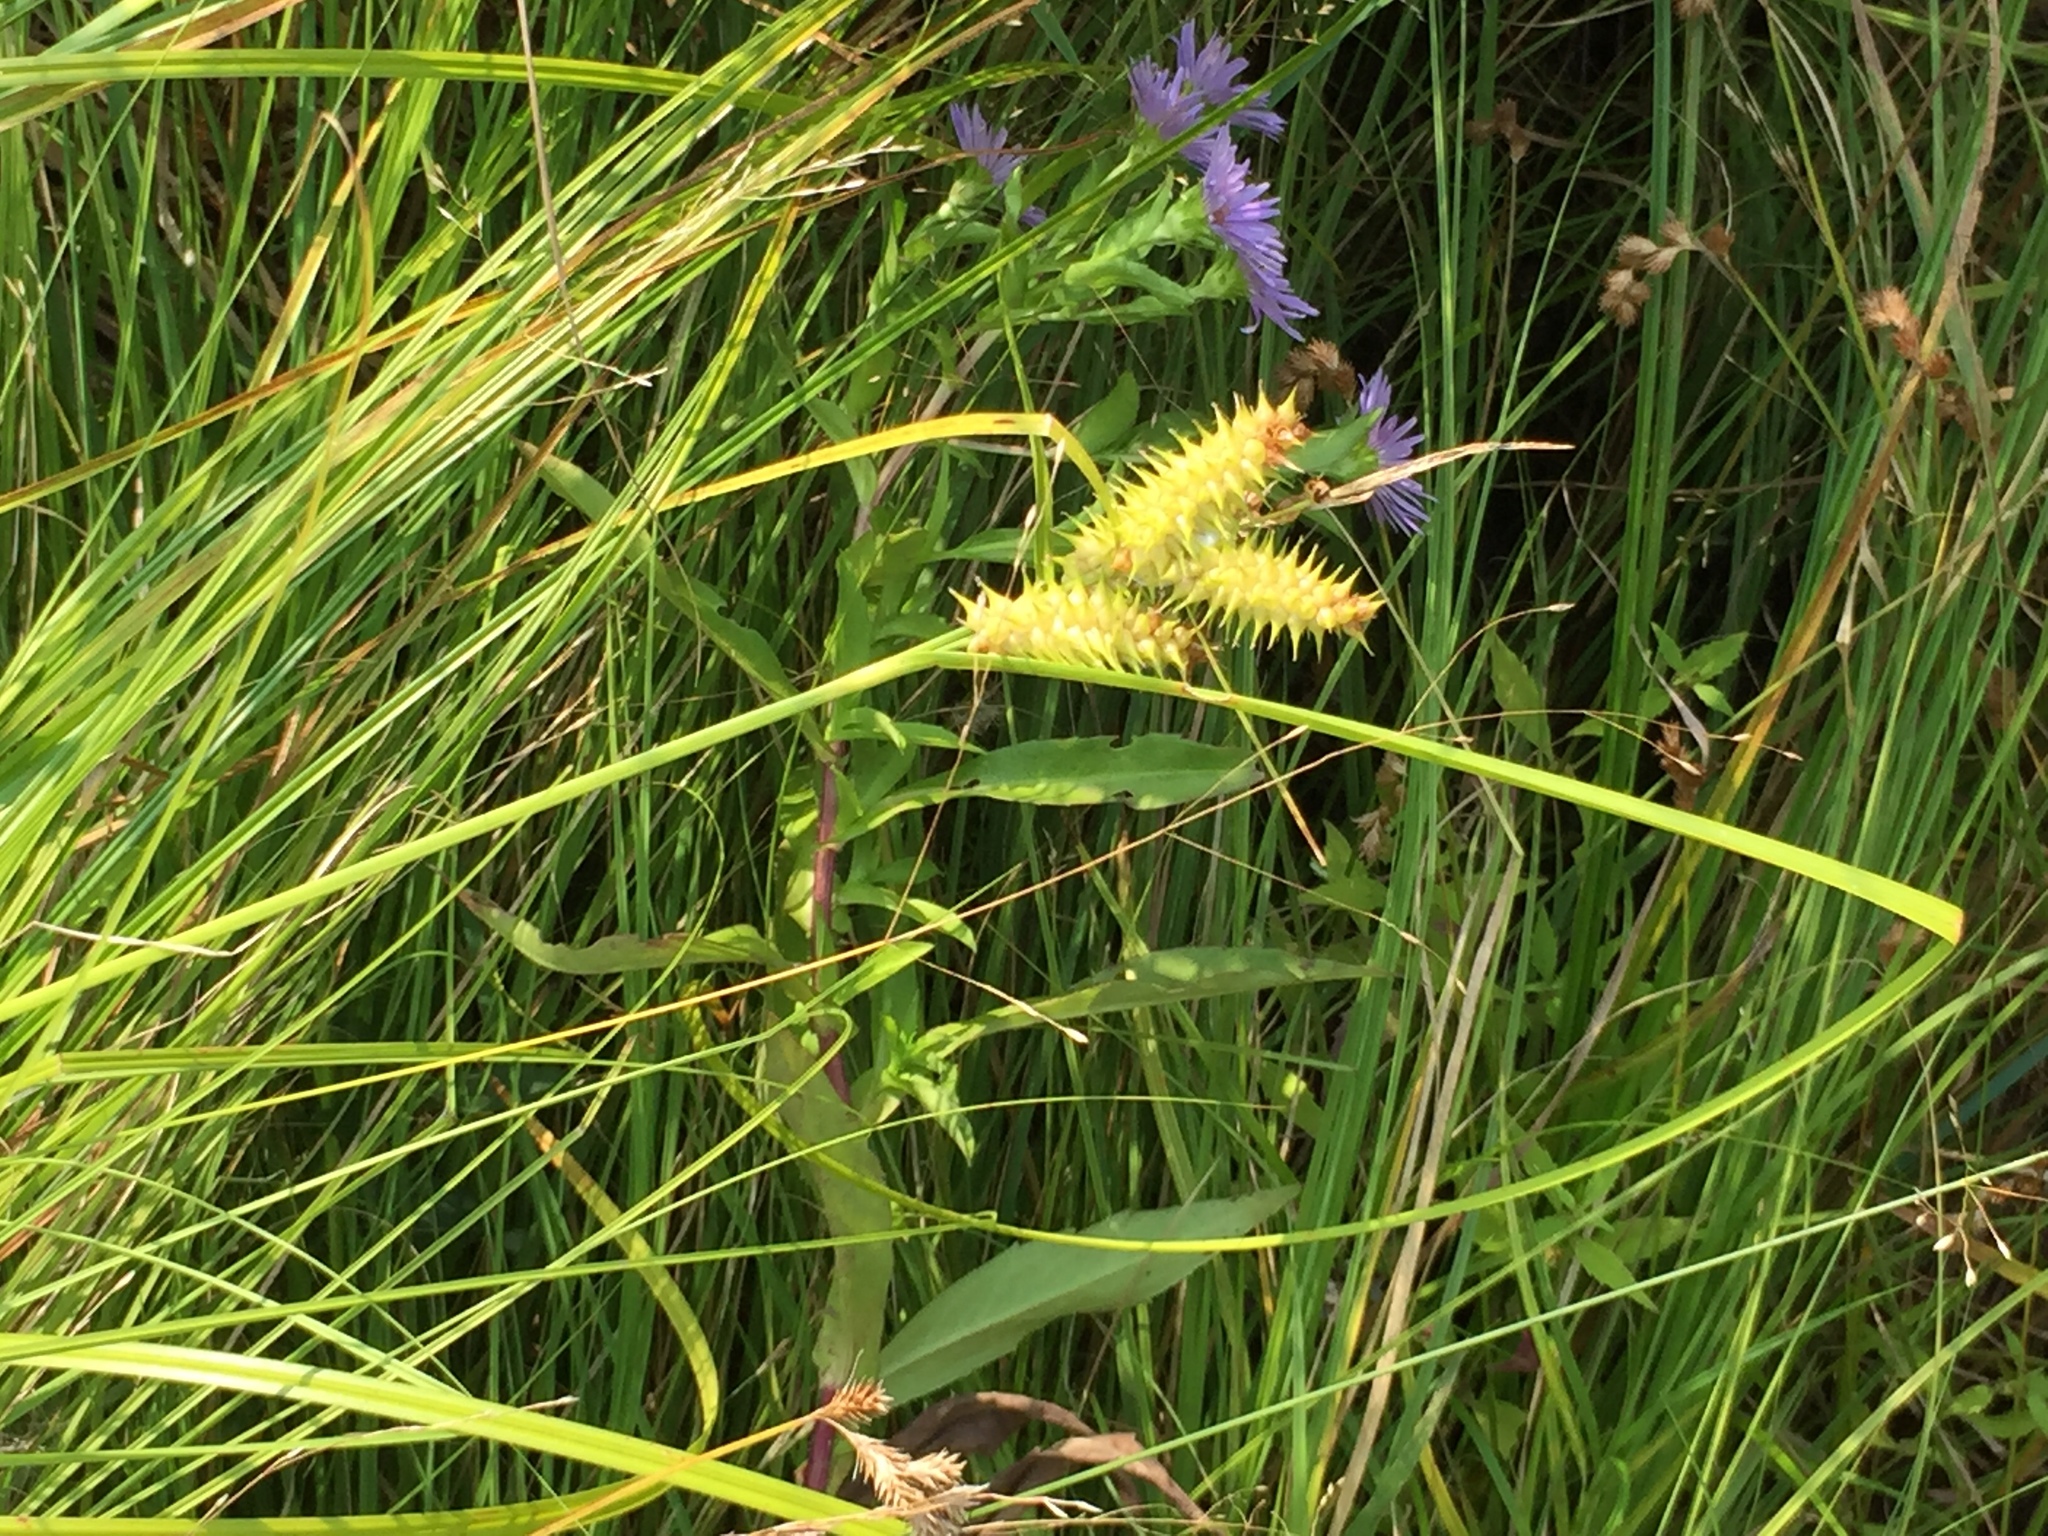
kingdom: Plantae
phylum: Tracheophyta
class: Liliopsida
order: Poales
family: Cyperaceae
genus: Carex
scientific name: Carex retrorsa
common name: Knot-sheath sedge
